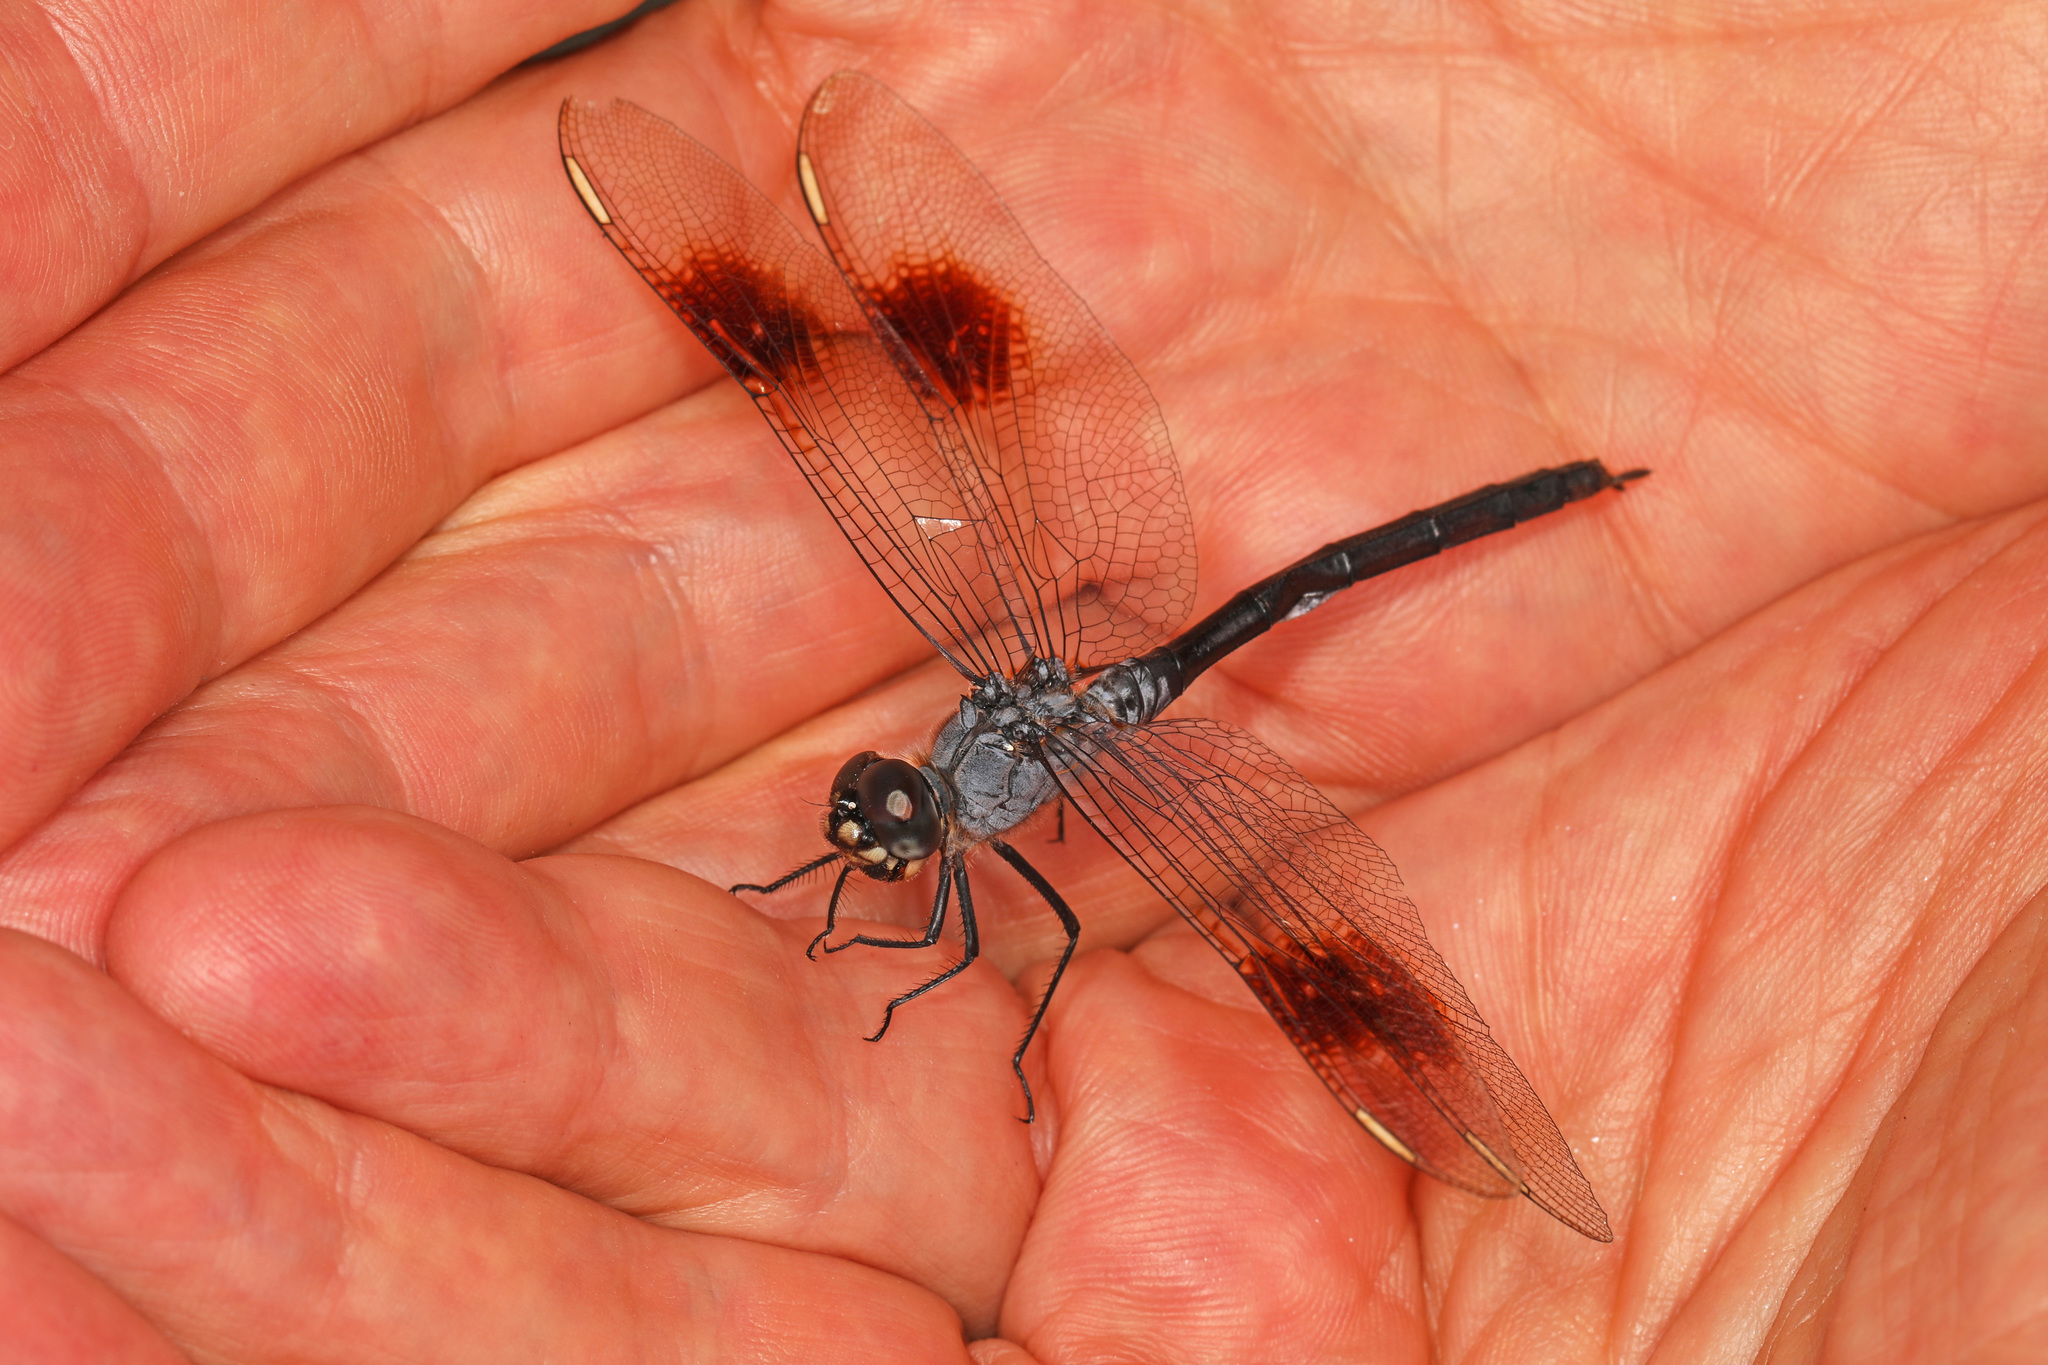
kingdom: Animalia
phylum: Arthropoda
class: Insecta
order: Odonata
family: Libellulidae
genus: Brachymesia
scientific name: Brachymesia gravida
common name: Four-spotted pennant
